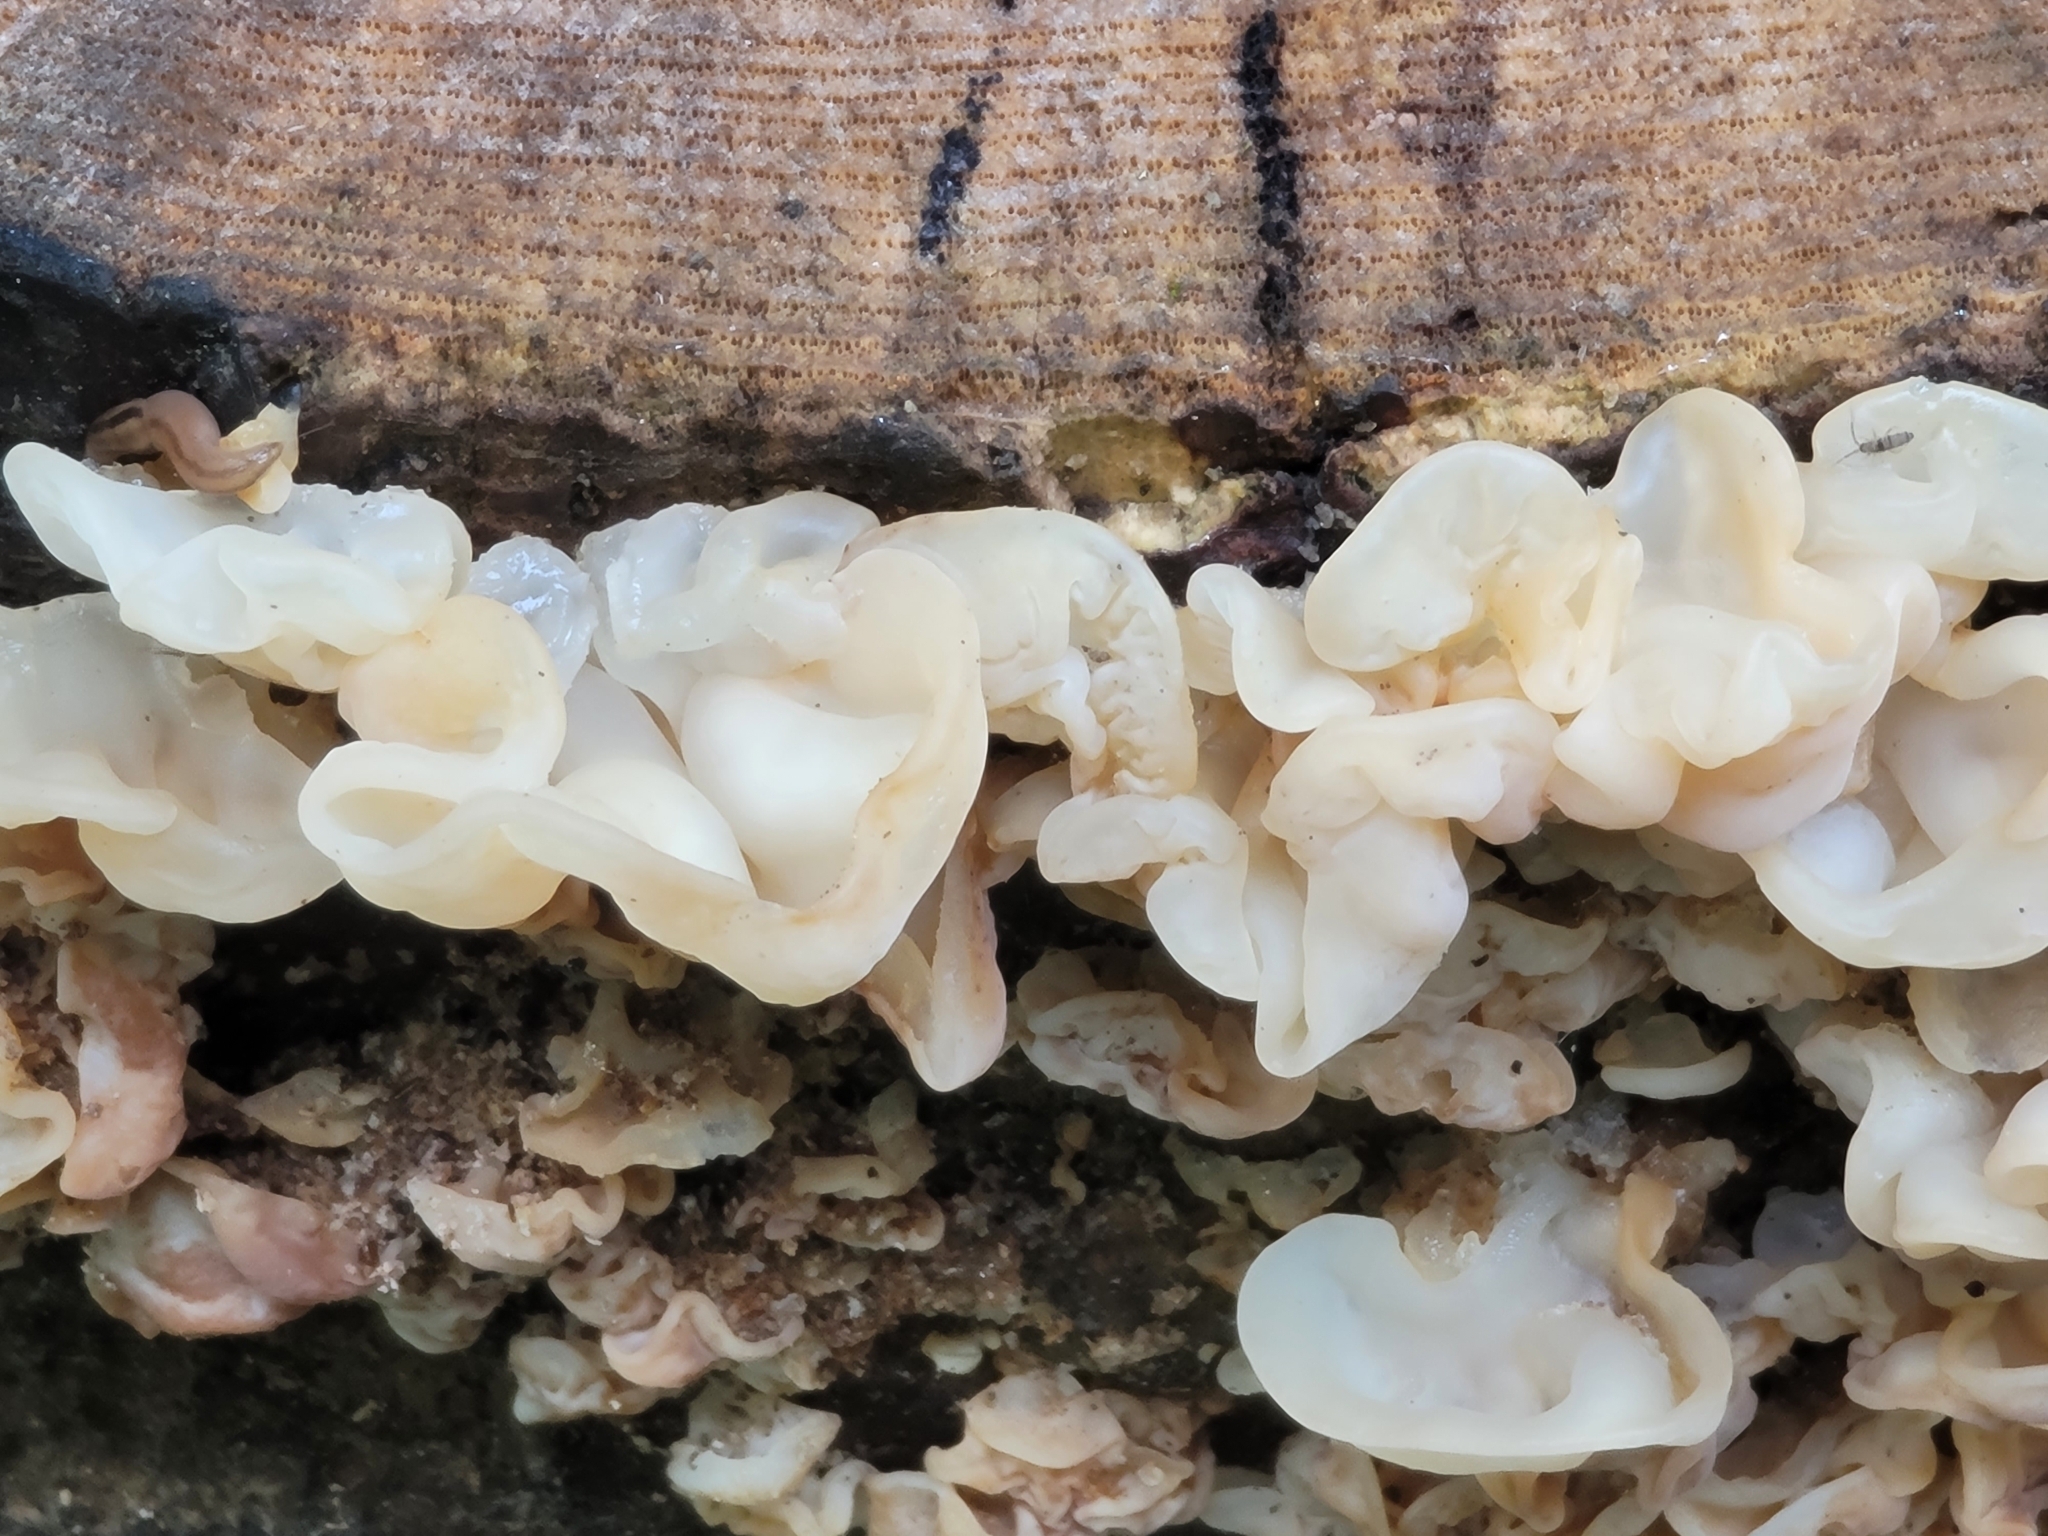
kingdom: Fungi
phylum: Basidiomycota
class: Agaricomycetes
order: Auriculariales
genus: Ductifera
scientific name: Ductifera pululahuana
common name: White jelly fungus
